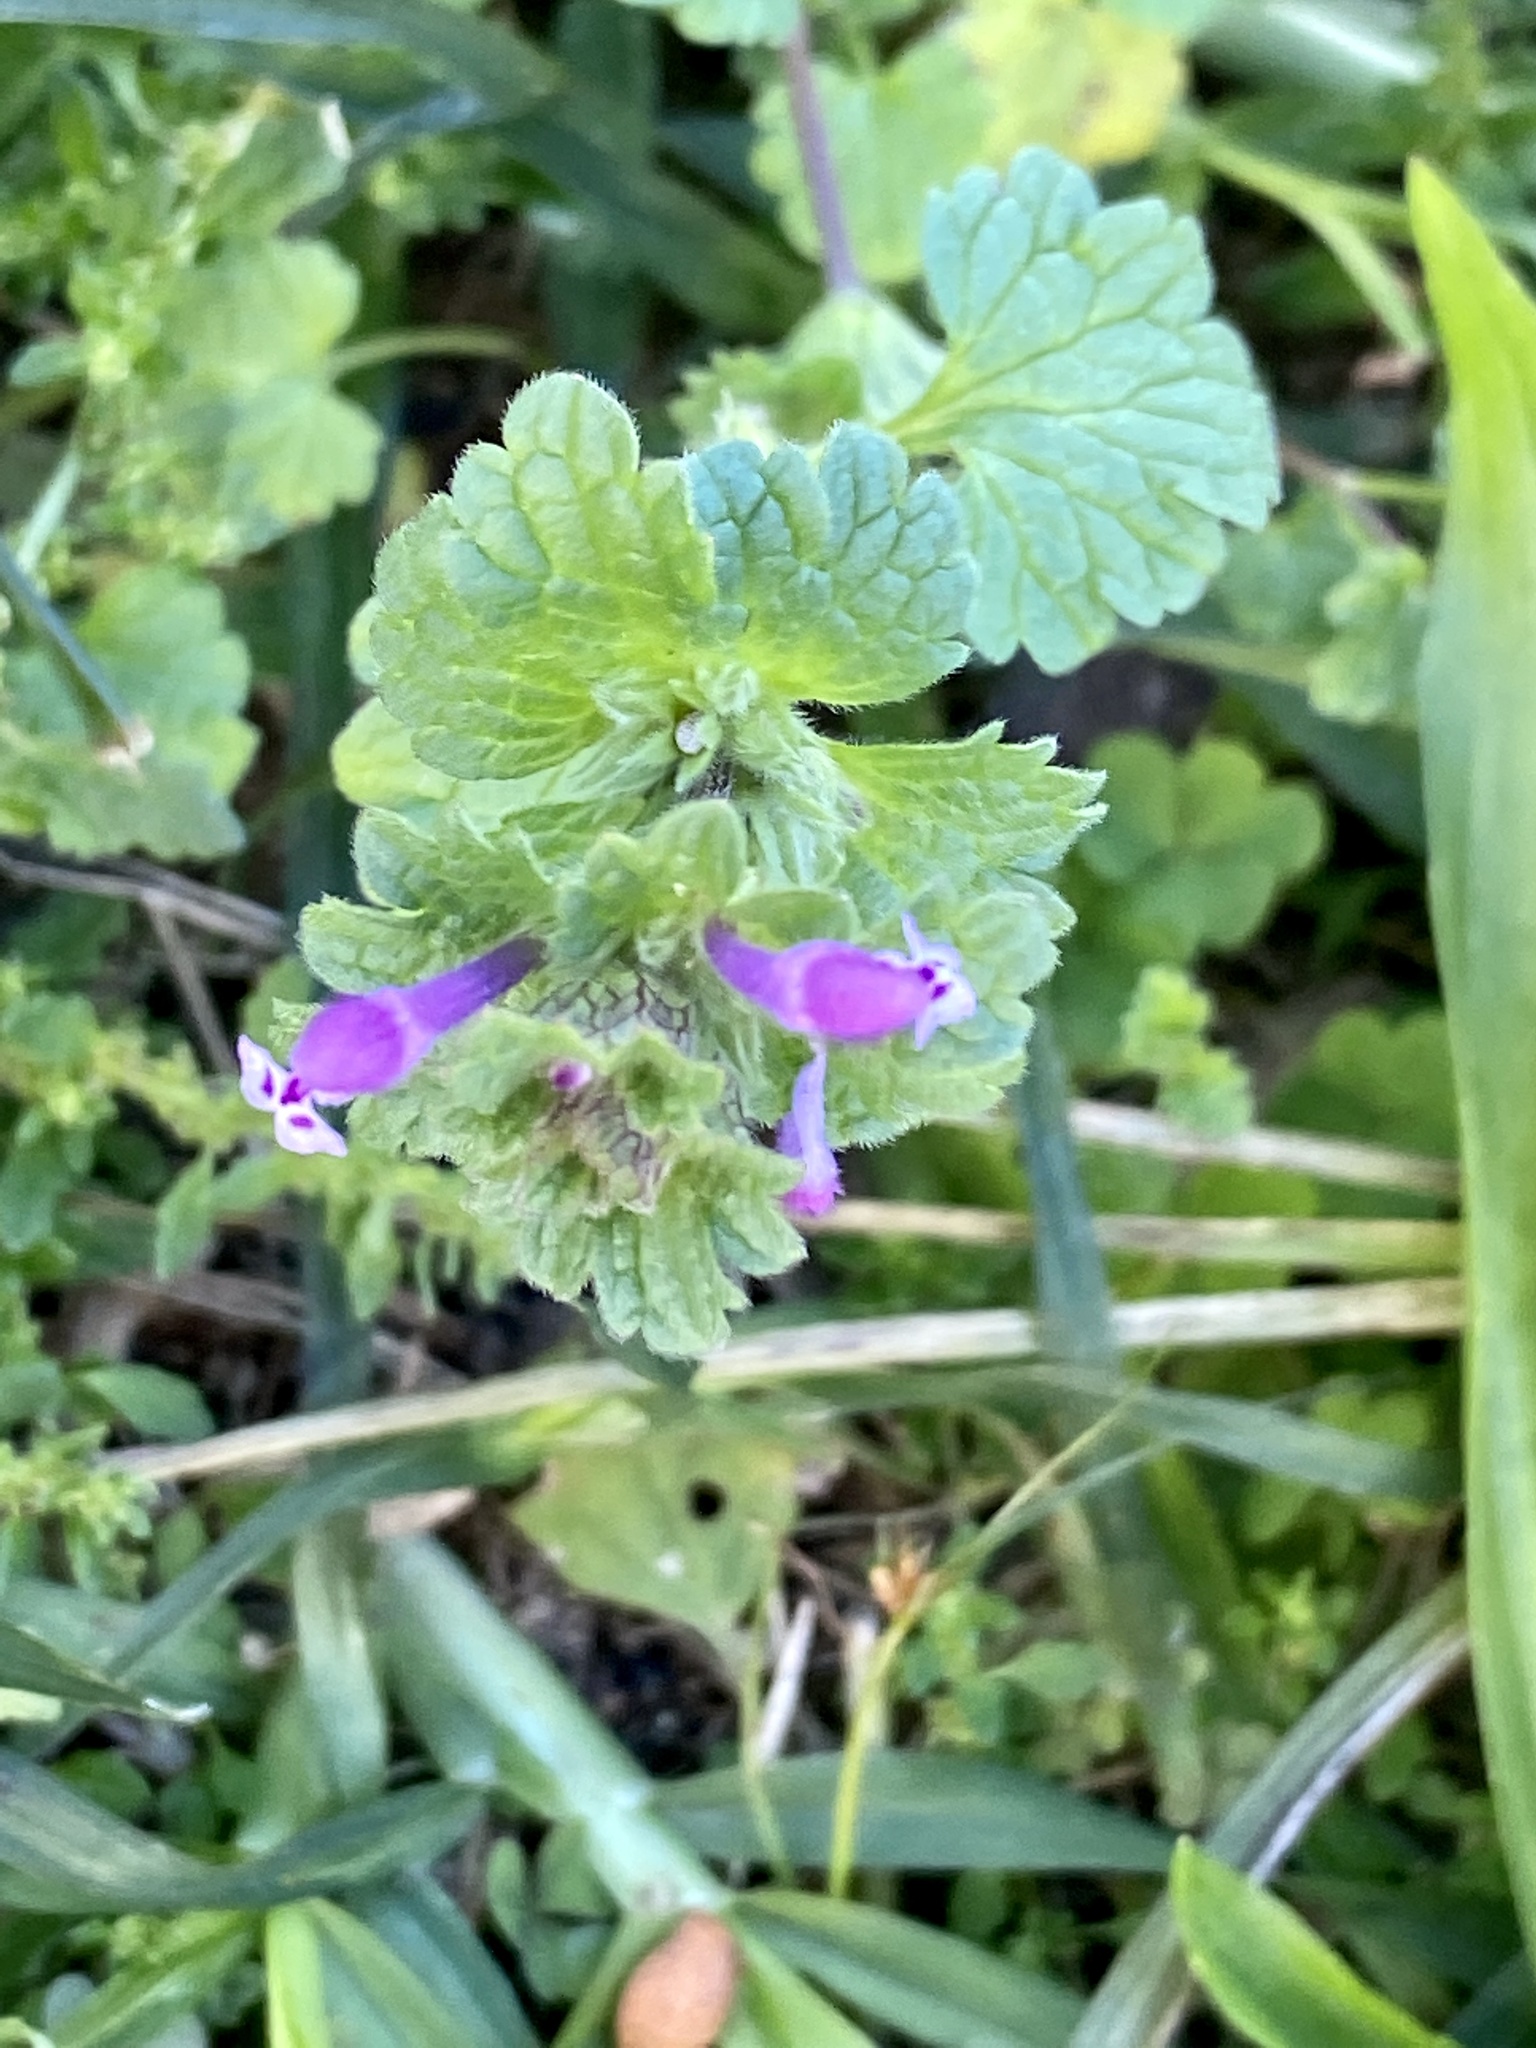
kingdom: Plantae
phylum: Tracheophyta
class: Magnoliopsida
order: Lamiales
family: Lamiaceae
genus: Lamium
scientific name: Lamium amplexicaule
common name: Henbit dead-nettle
